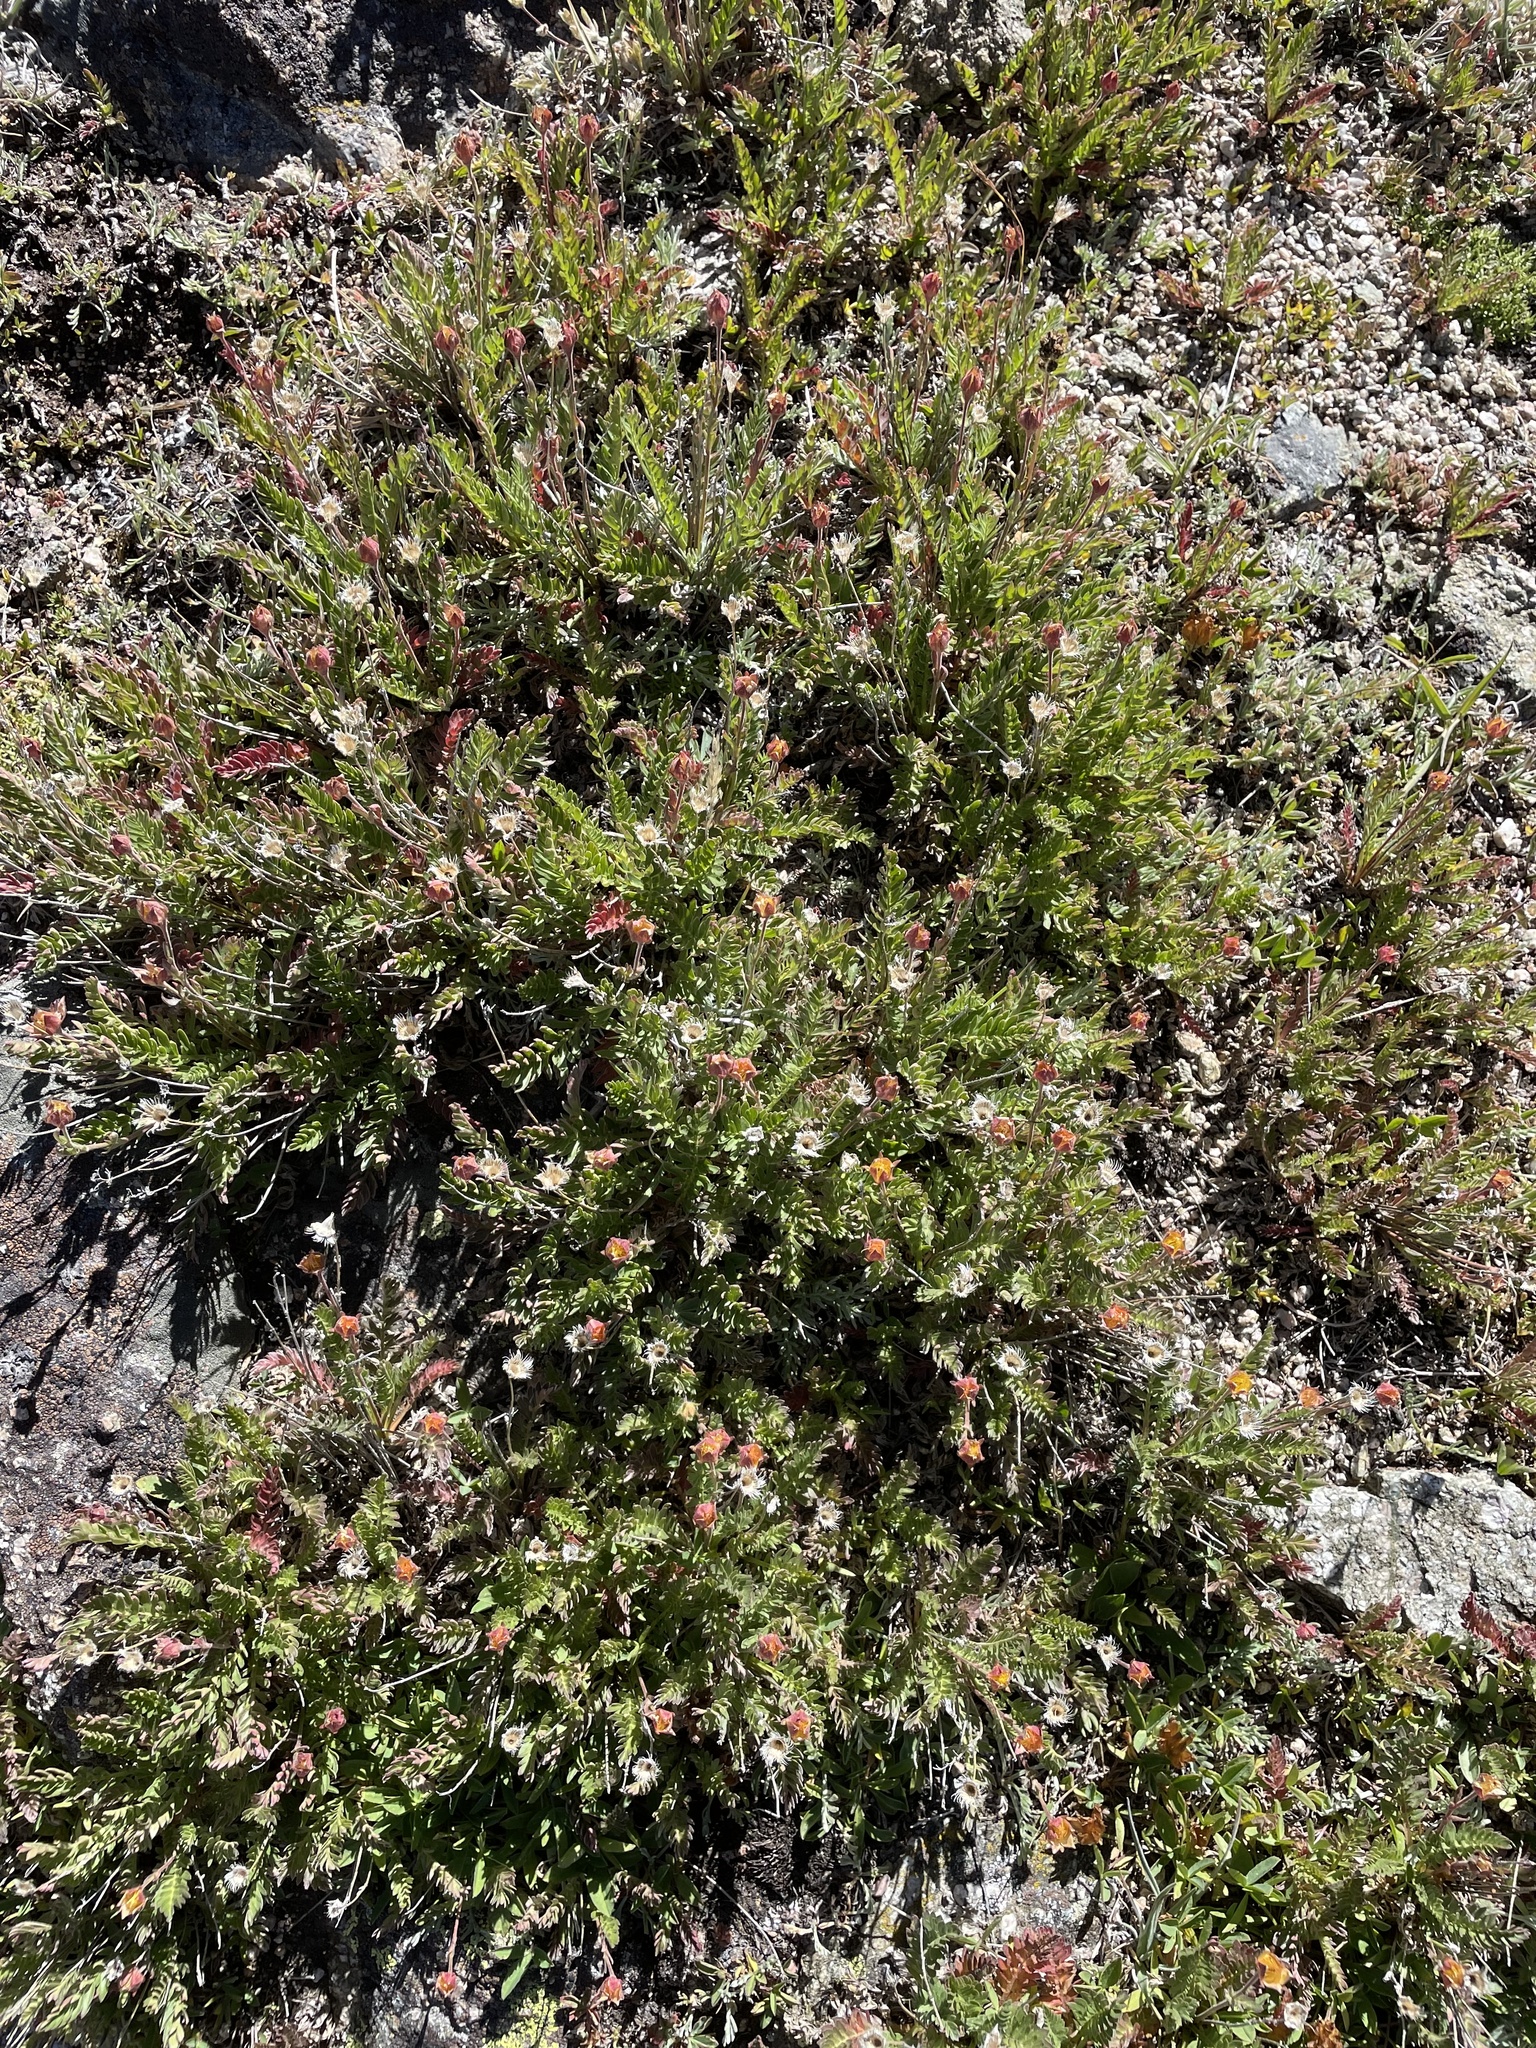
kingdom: Plantae
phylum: Tracheophyta
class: Magnoliopsida
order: Rosales
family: Rosaceae
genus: Geum
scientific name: Geum rossii
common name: Alpine avens
